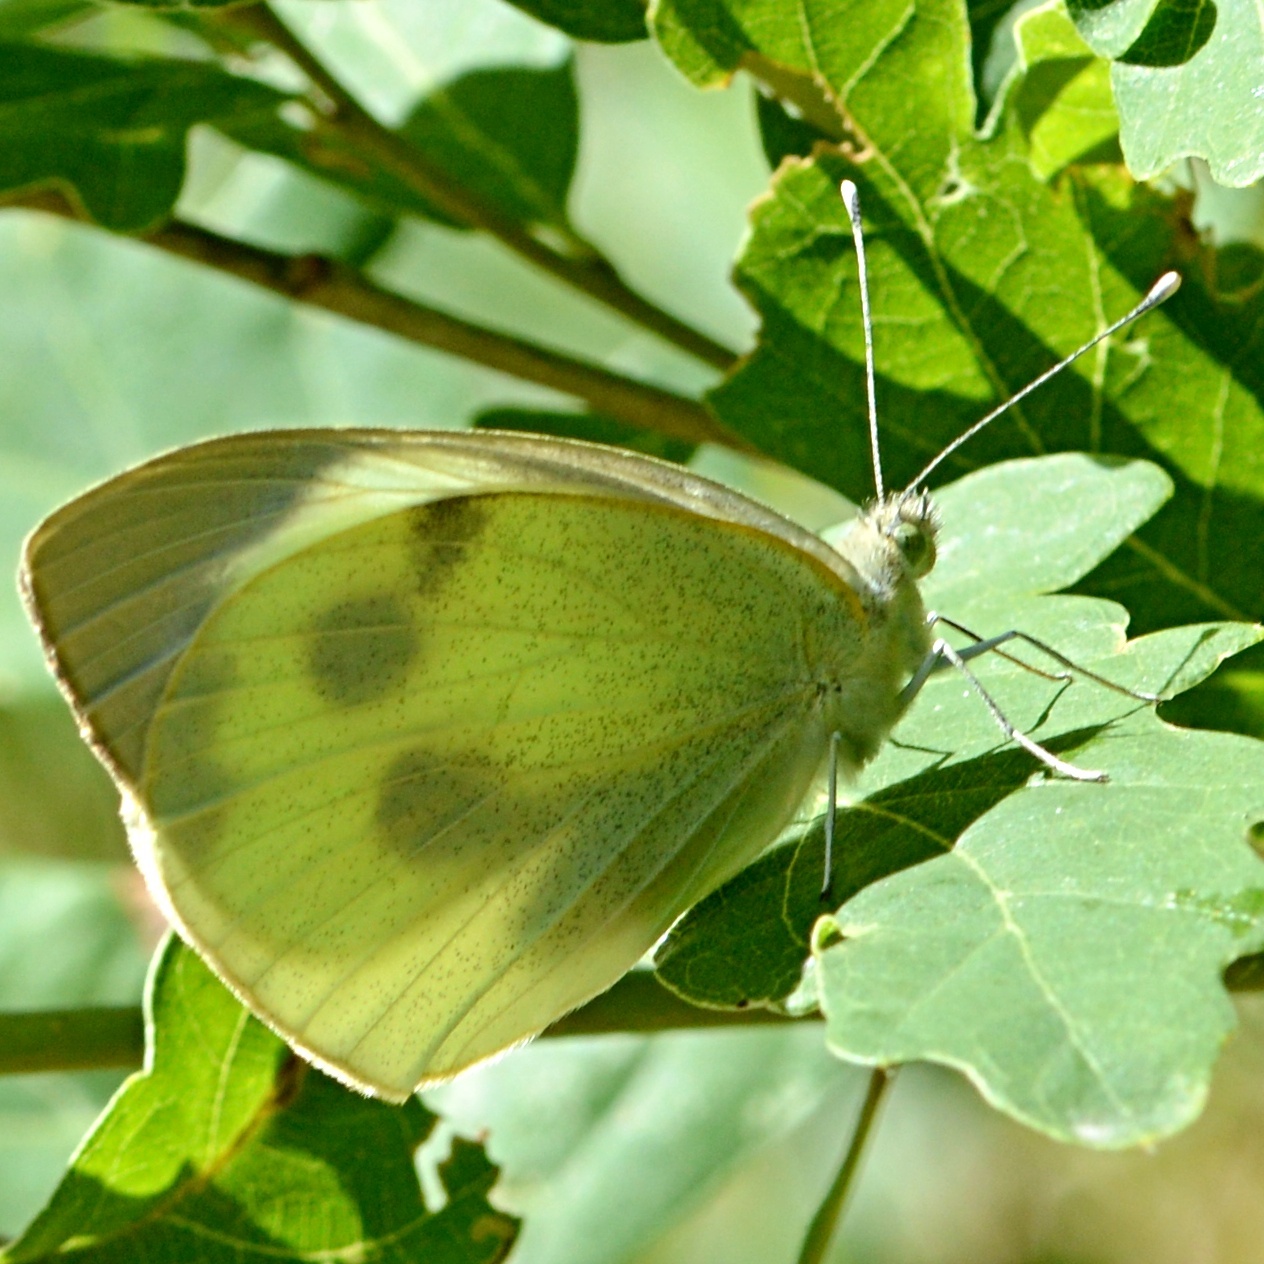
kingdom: Animalia
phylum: Arthropoda
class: Insecta
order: Lepidoptera
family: Pieridae
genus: Pieris
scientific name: Pieris brassicae
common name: Large white
